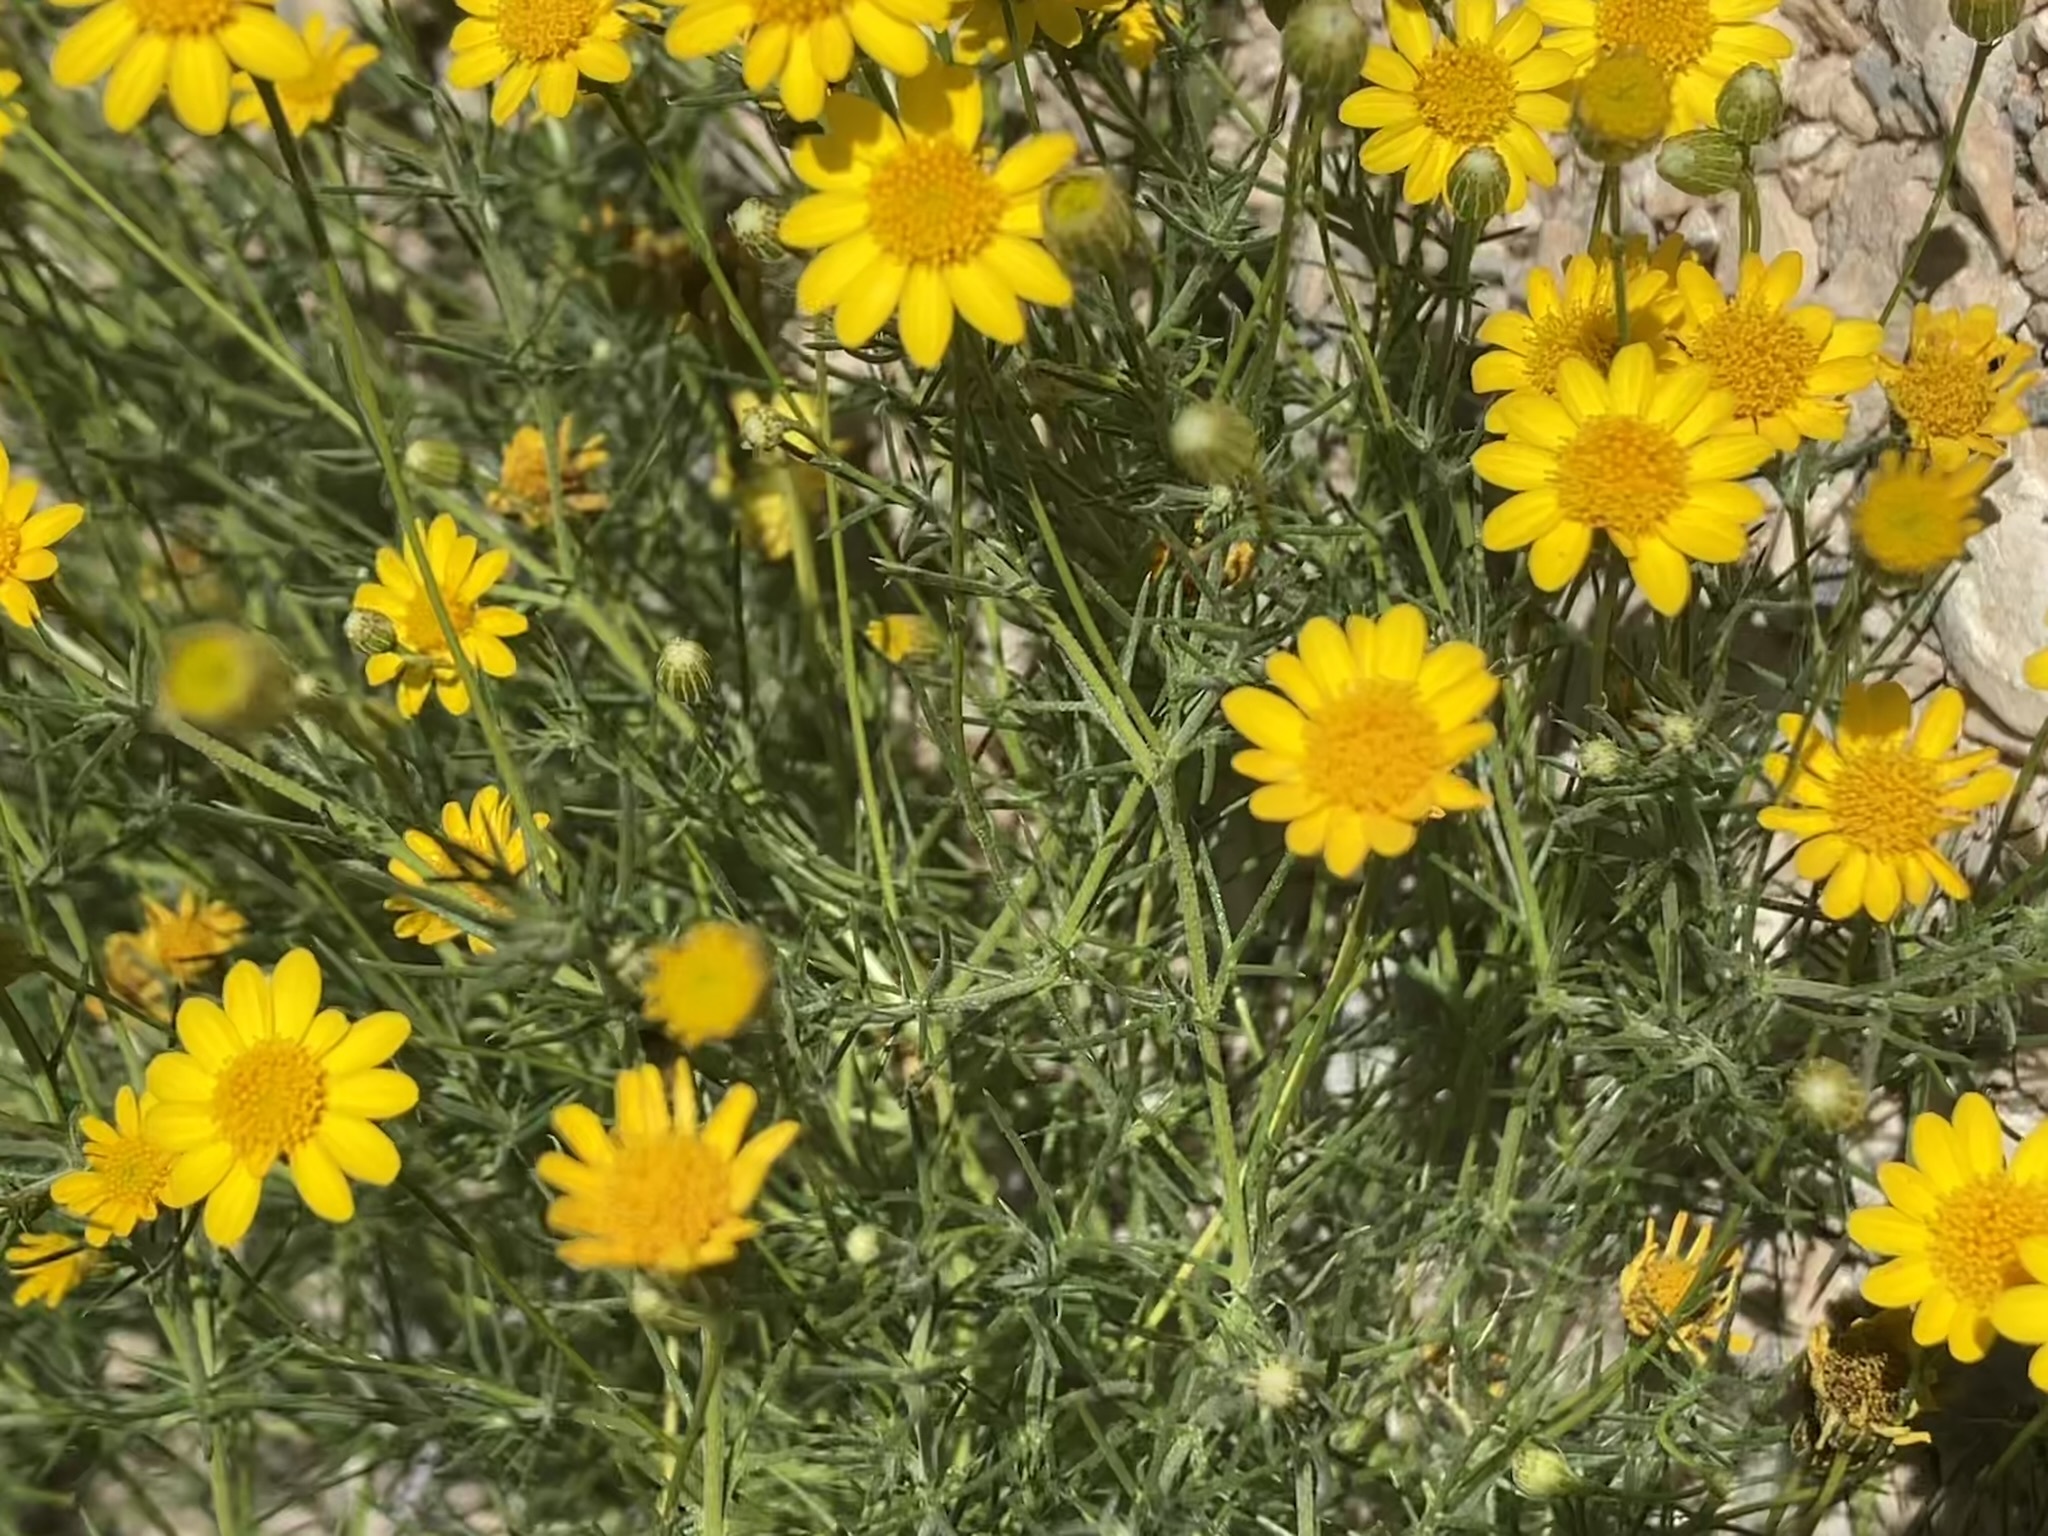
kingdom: Plantae
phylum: Tracheophyta
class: Magnoliopsida
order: Asterales
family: Asteraceae
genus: Thymophylla
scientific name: Thymophylla pentachaeta
